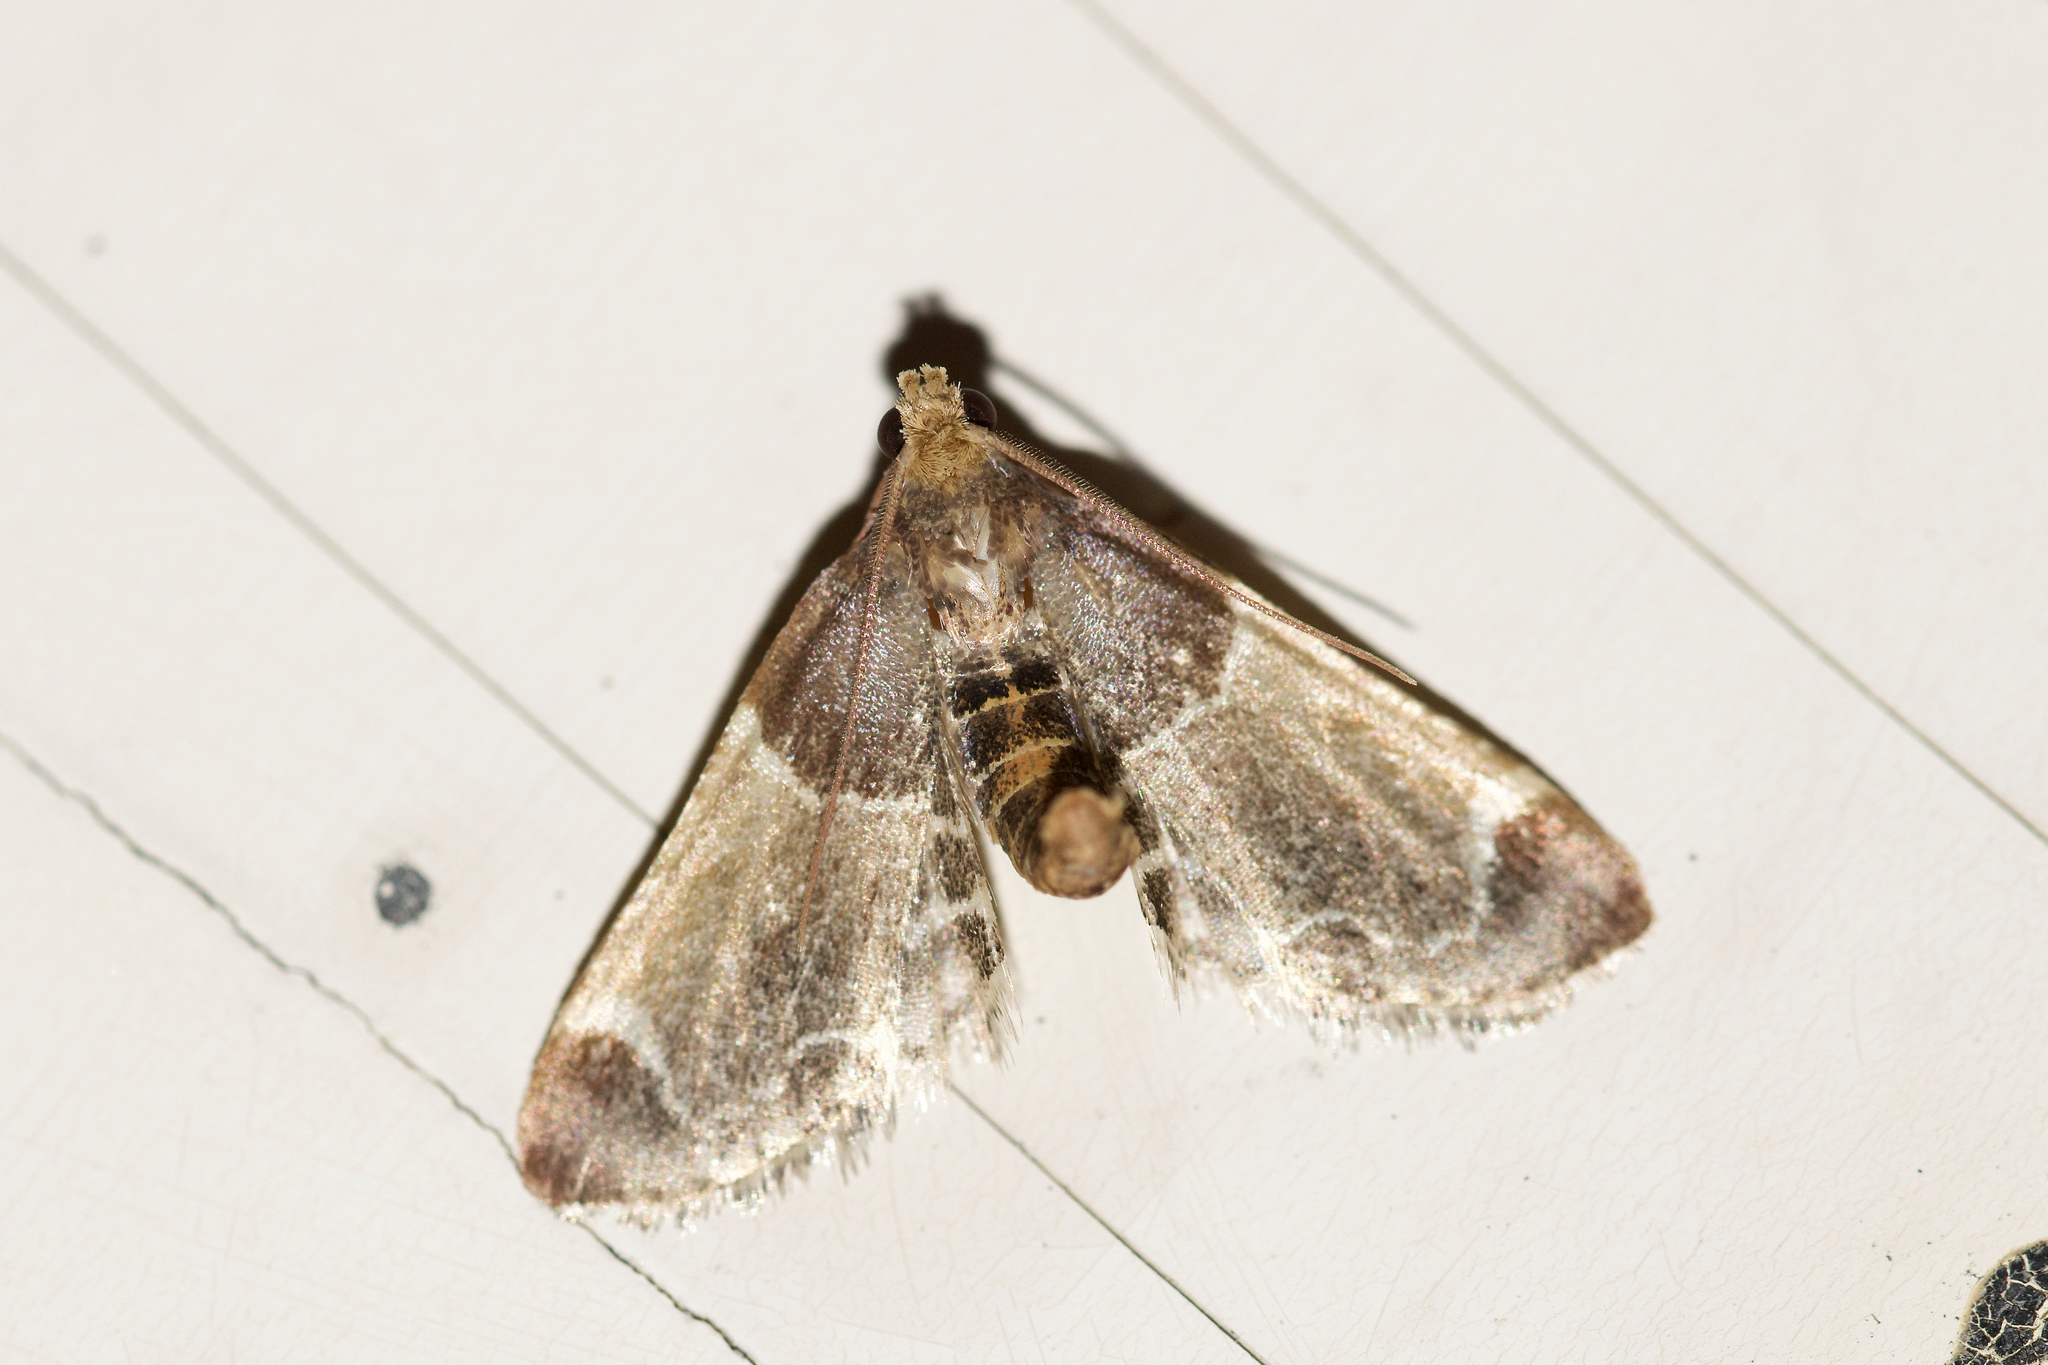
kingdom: Animalia
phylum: Arthropoda
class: Insecta
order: Lepidoptera
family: Pyralidae
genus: Pyralis
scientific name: Pyralis farinalis
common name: Meal moth
